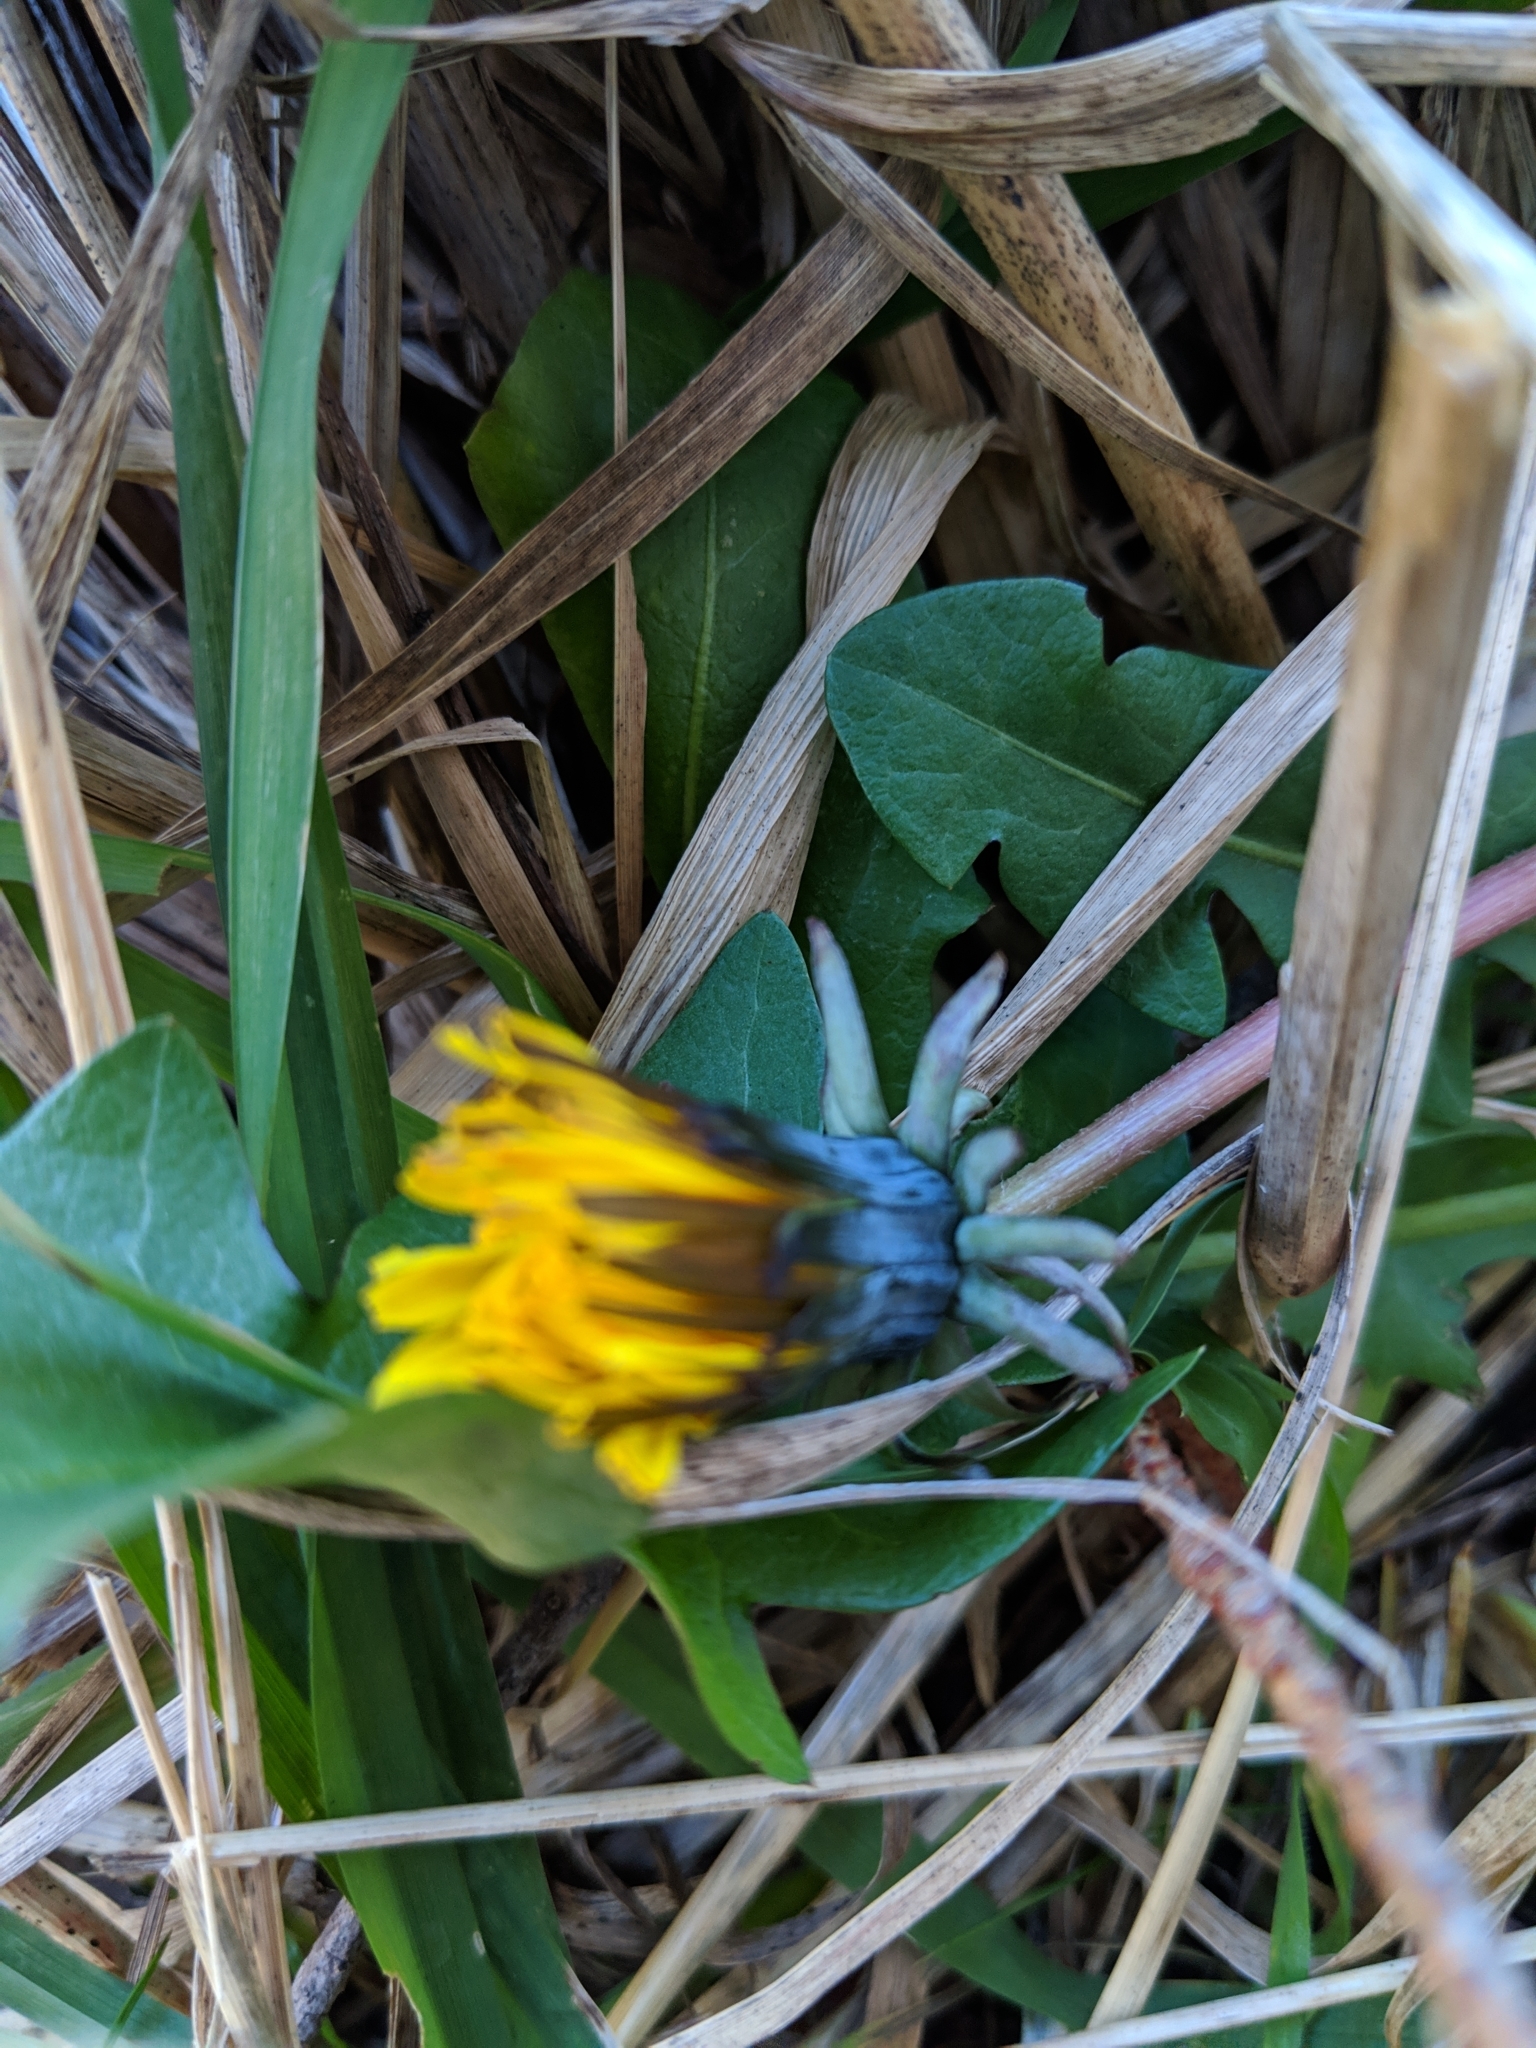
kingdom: Plantae
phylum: Tracheophyta
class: Magnoliopsida
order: Asterales
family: Asteraceae
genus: Taraxacum
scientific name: Taraxacum officinale
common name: Common dandelion
